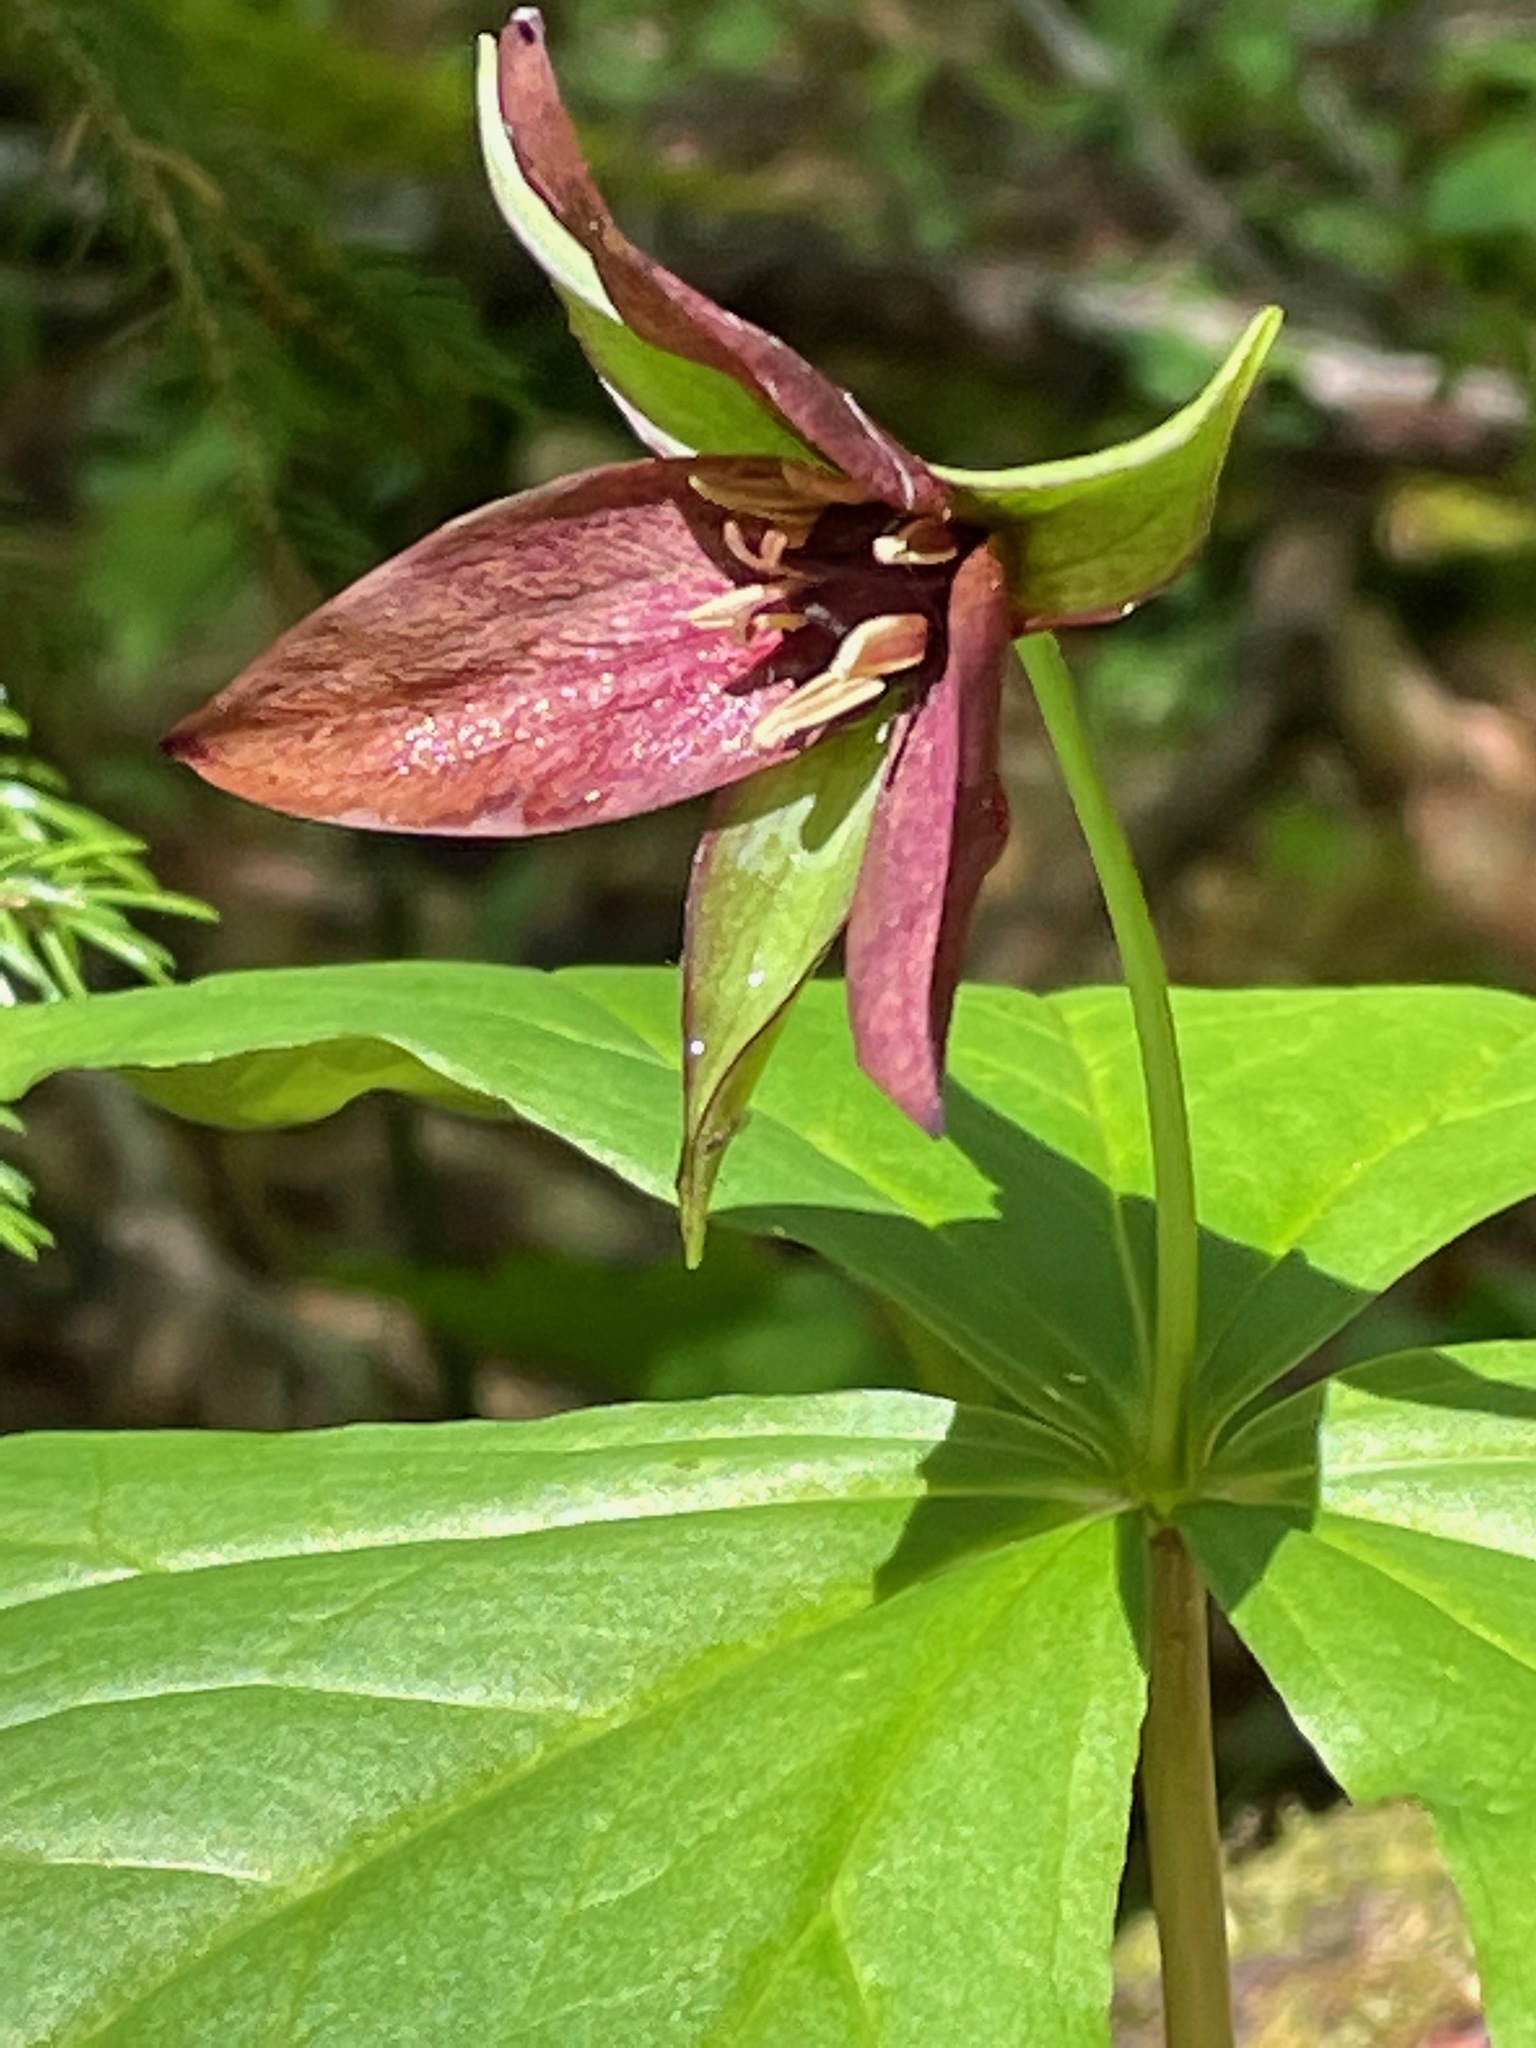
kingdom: Plantae
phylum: Tracheophyta
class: Liliopsida
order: Liliales
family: Melanthiaceae
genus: Trillium
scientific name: Trillium erectum
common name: Purple trillium
